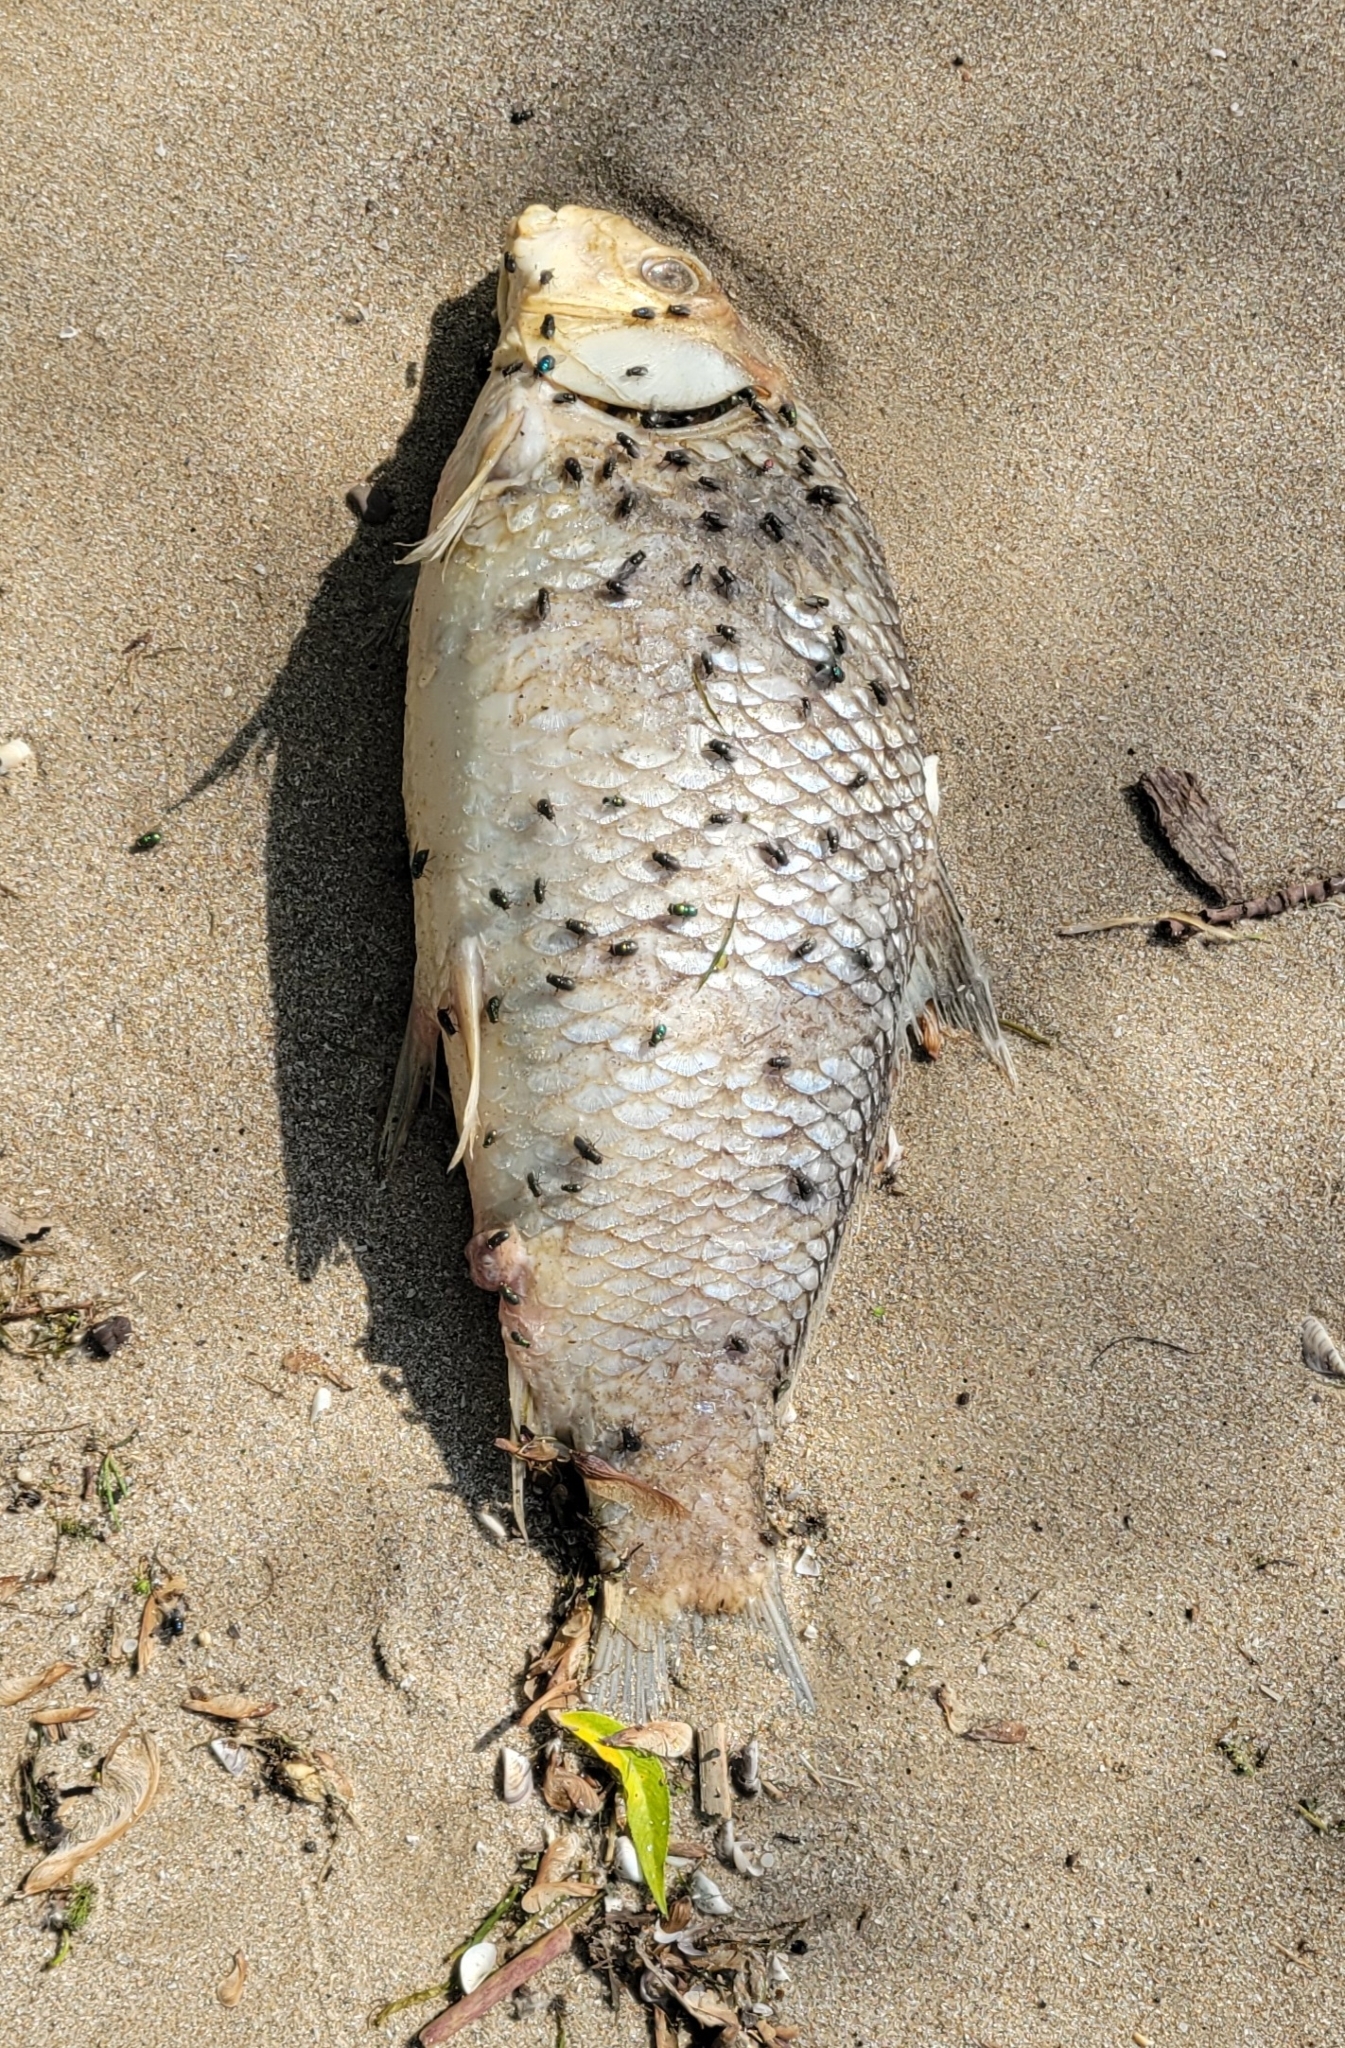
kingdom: Animalia
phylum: Chordata
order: Cypriniformes
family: Catostomidae
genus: Carpiodes
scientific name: Carpiodes cyprinus
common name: Quillback
